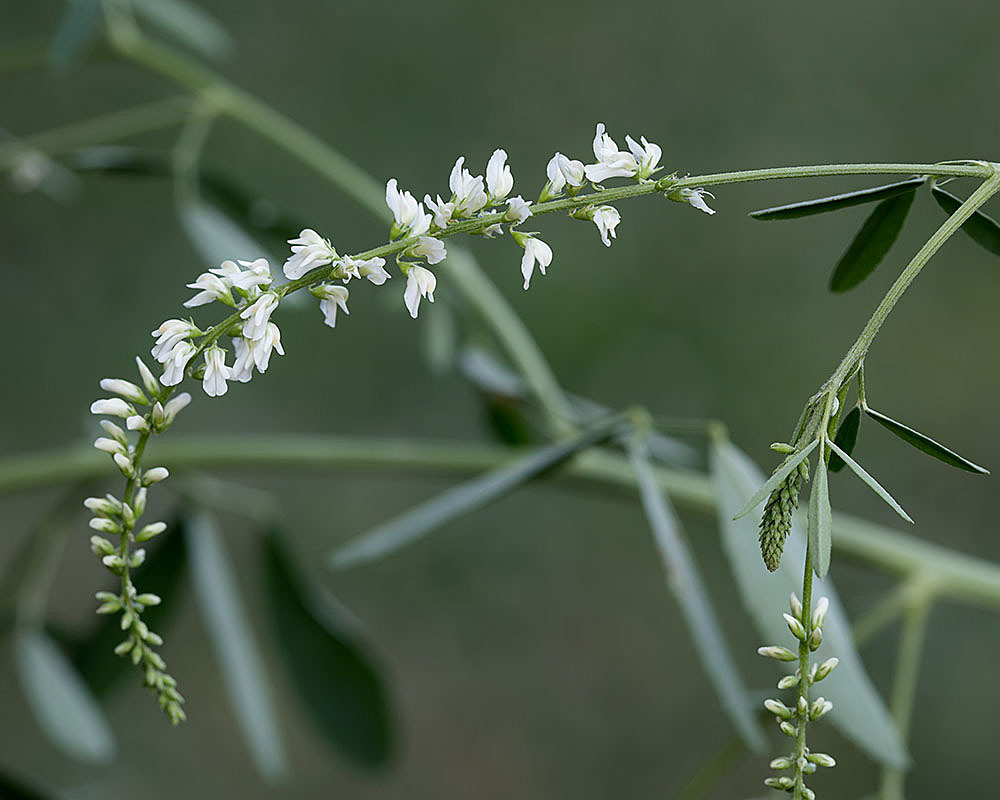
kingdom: Plantae
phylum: Tracheophyta
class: Magnoliopsida
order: Fabales
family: Fabaceae
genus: Melilotus
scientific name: Melilotus albus
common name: White melilot
